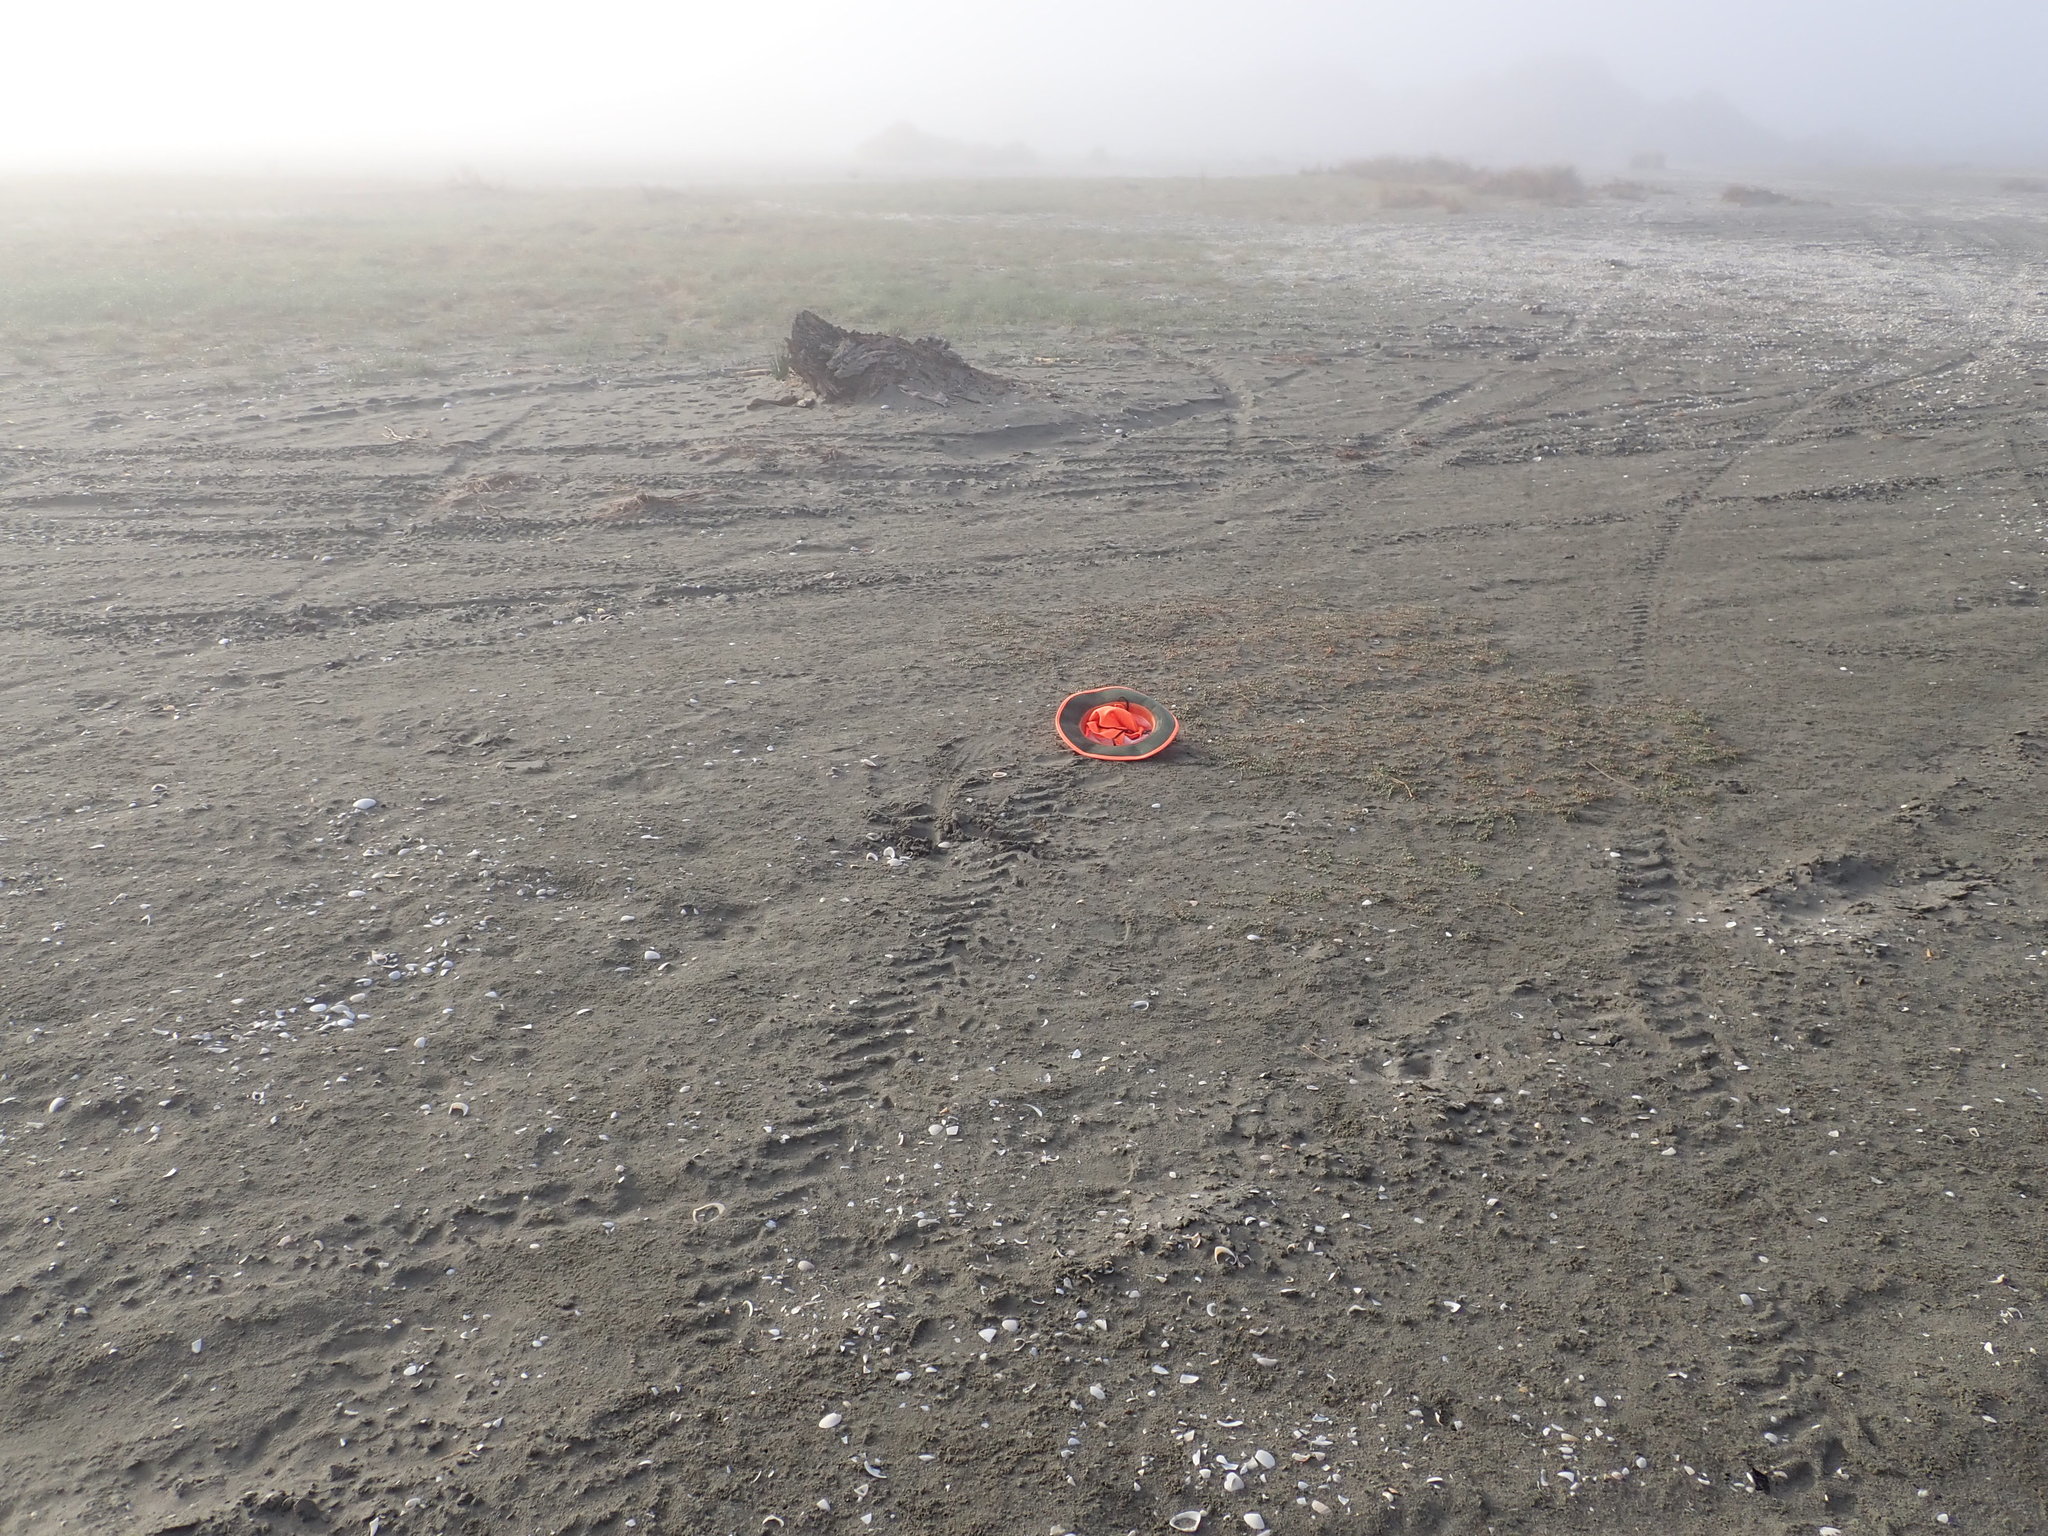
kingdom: Plantae
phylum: Tracheophyta
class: Magnoliopsida
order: Ericales
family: Primulaceae
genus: Samolus
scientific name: Samolus repens
